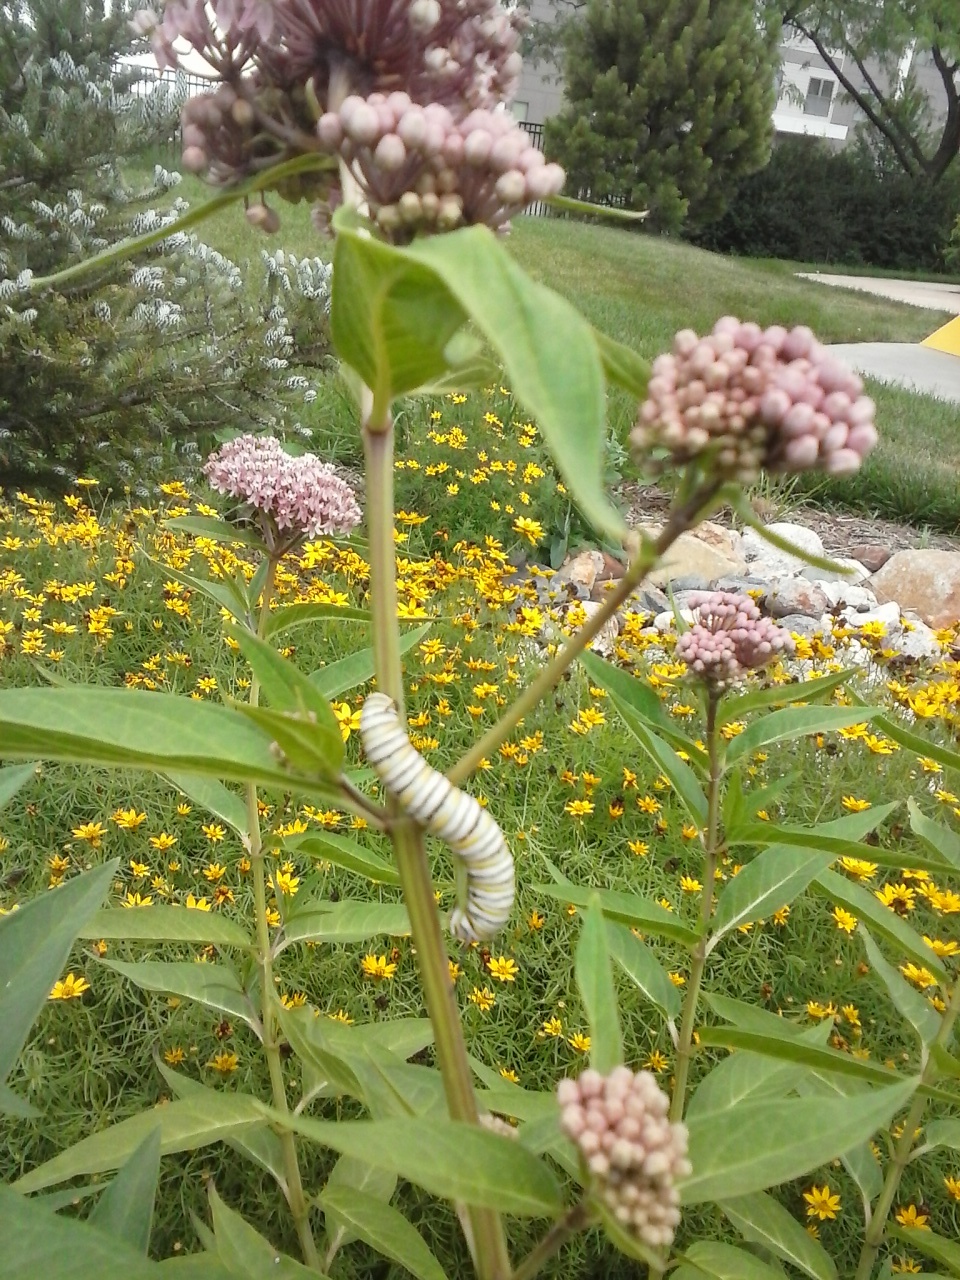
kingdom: Animalia
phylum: Arthropoda
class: Insecta
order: Lepidoptera
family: Nymphalidae
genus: Danaus
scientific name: Danaus plexippus
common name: Monarch
